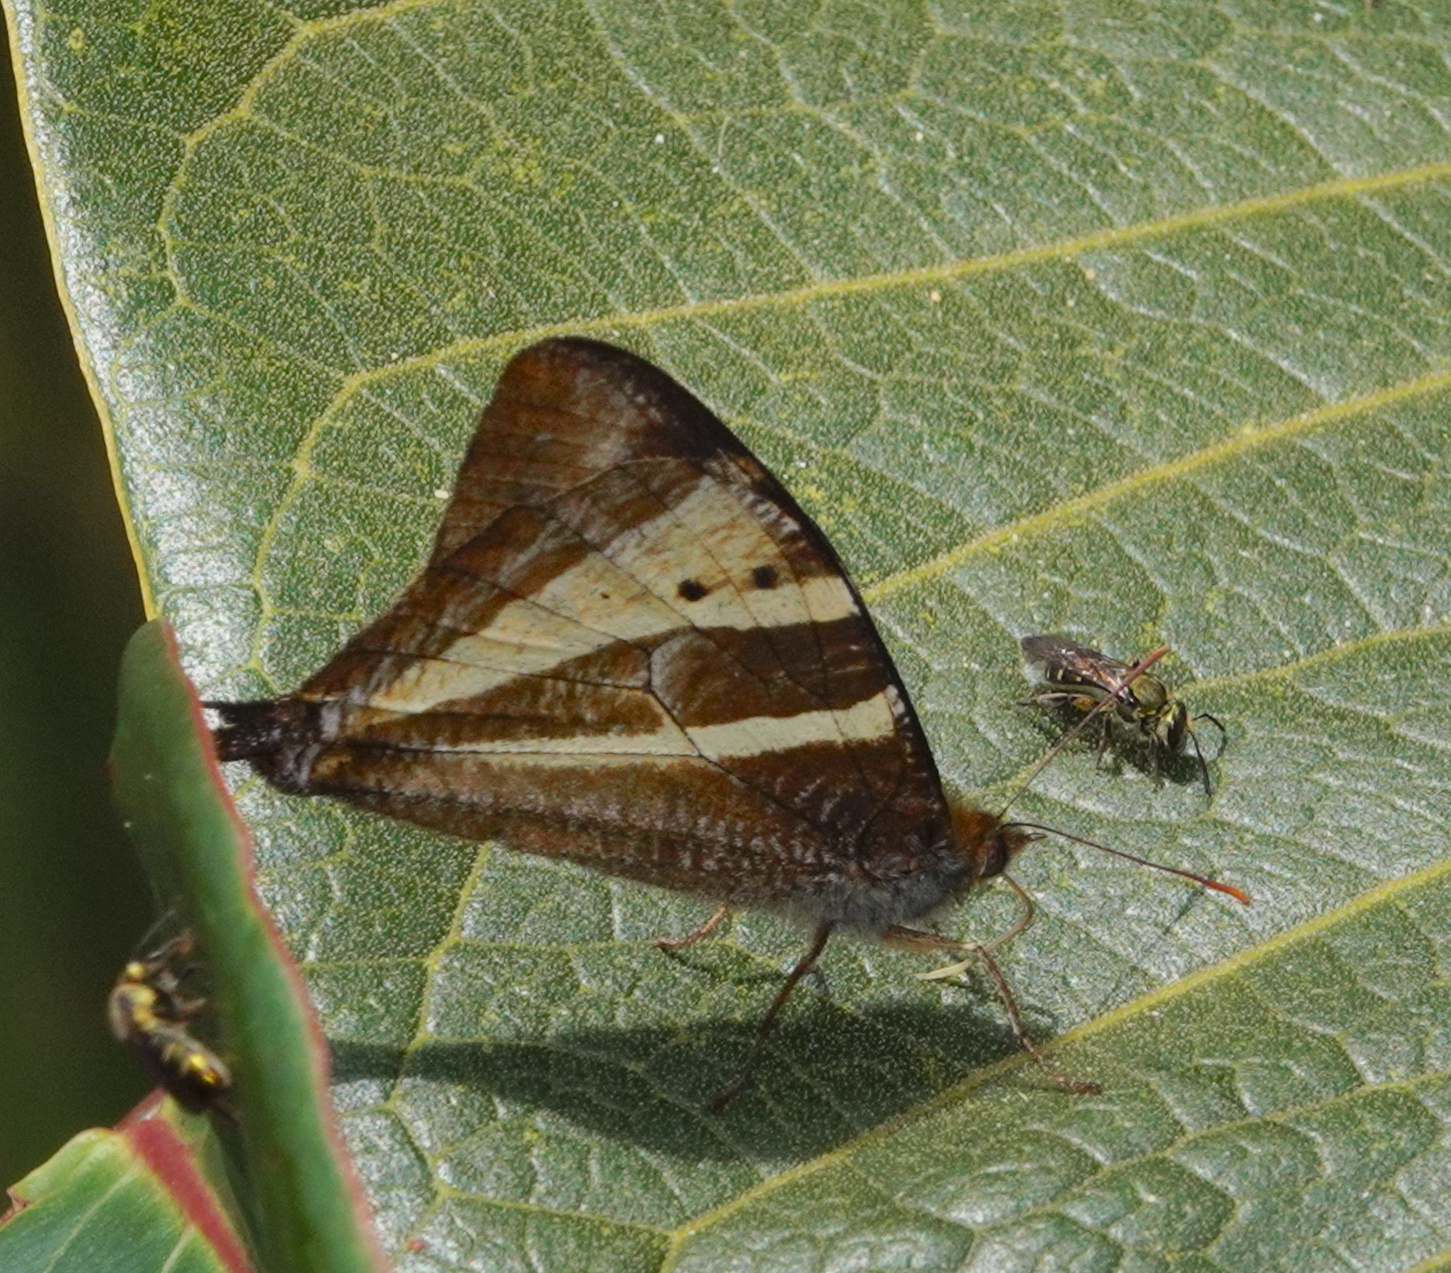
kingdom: Animalia
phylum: Arthropoda
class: Insecta
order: Lepidoptera
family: Nymphalidae
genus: Corades
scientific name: Corades ulema
